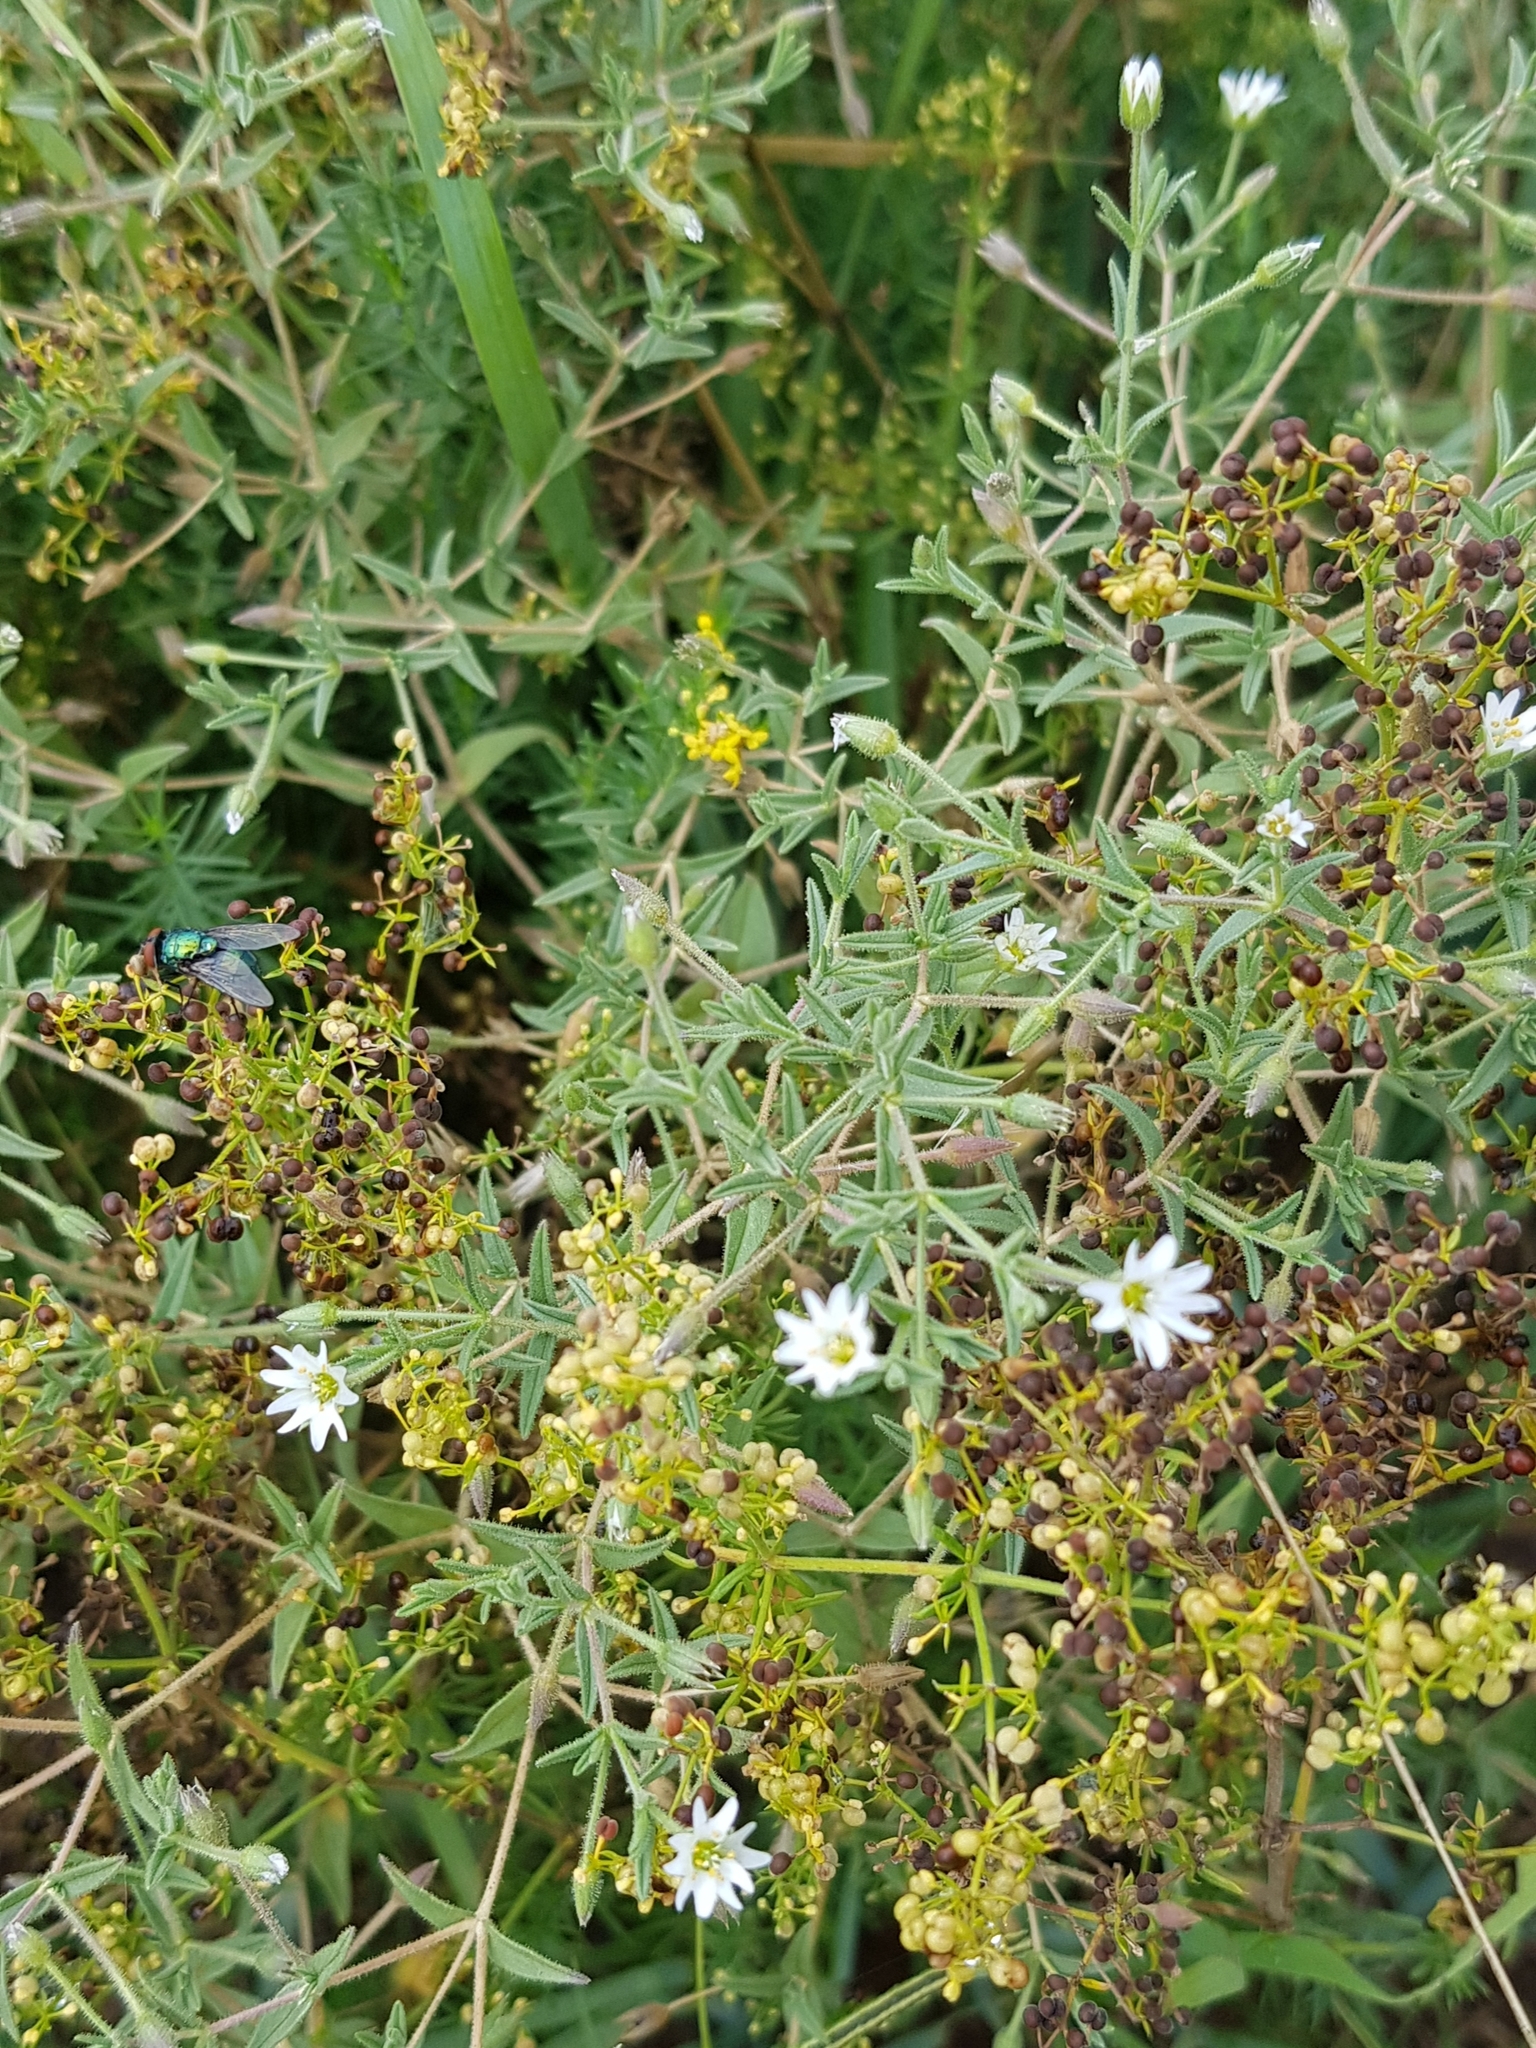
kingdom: Plantae
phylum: Tracheophyta
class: Magnoliopsida
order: Caryophyllales
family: Caryophyllaceae
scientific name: Caryophyllaceae
